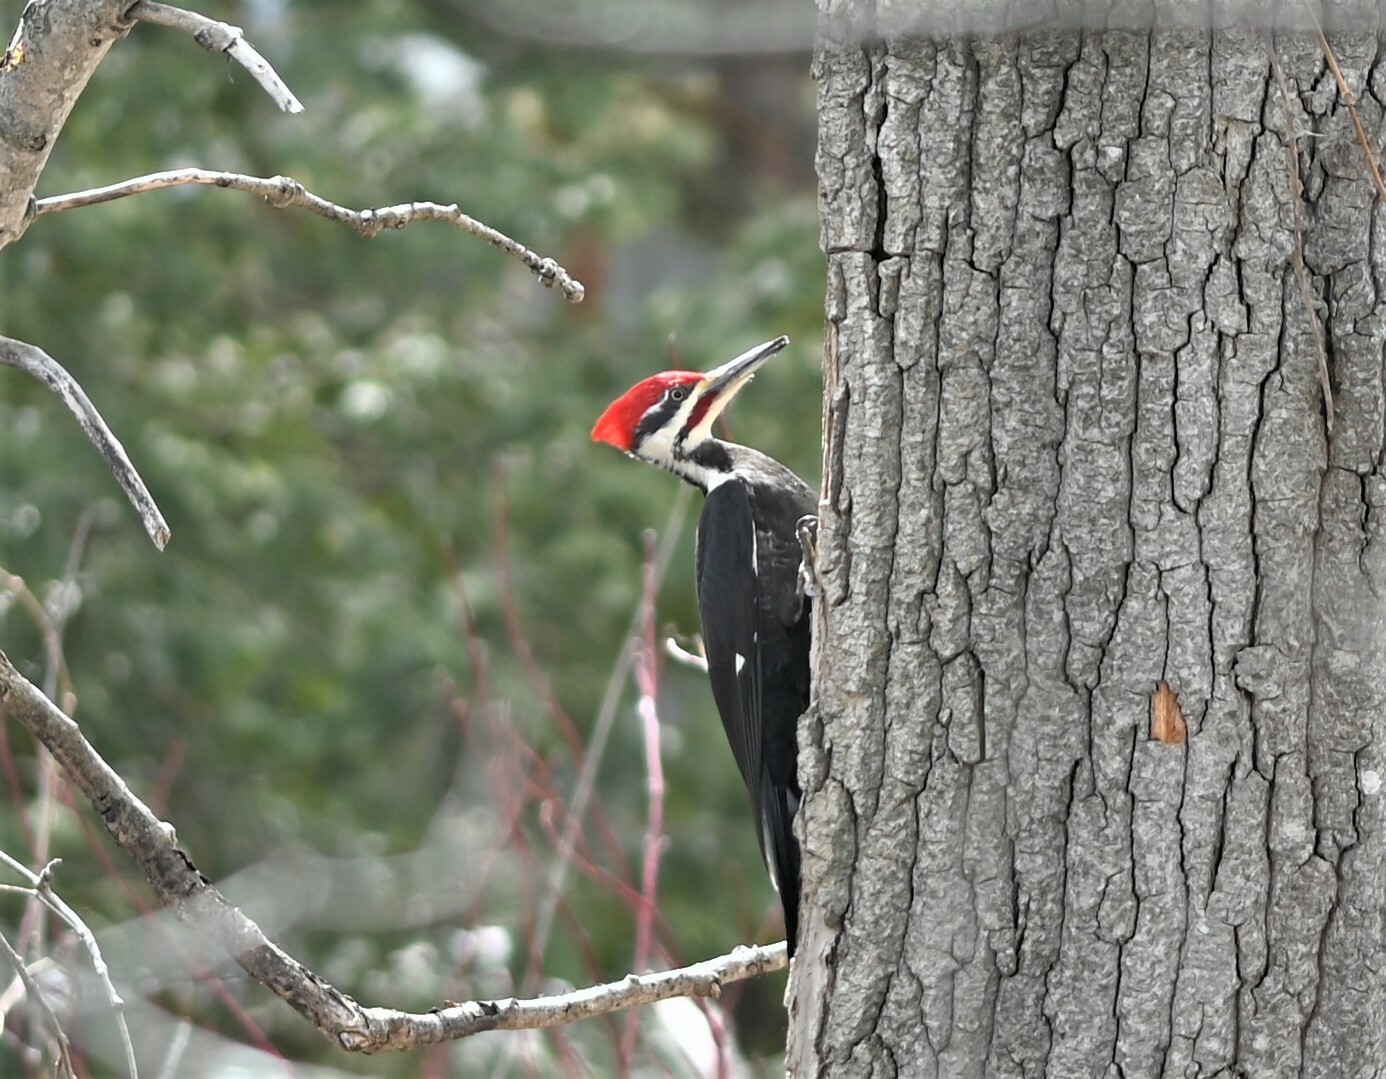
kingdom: Animalia
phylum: Chordata
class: Aves
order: Piciformes
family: Picidae
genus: Dryocopus
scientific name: Dryocopus pileatus
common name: Pileated woodpecker
